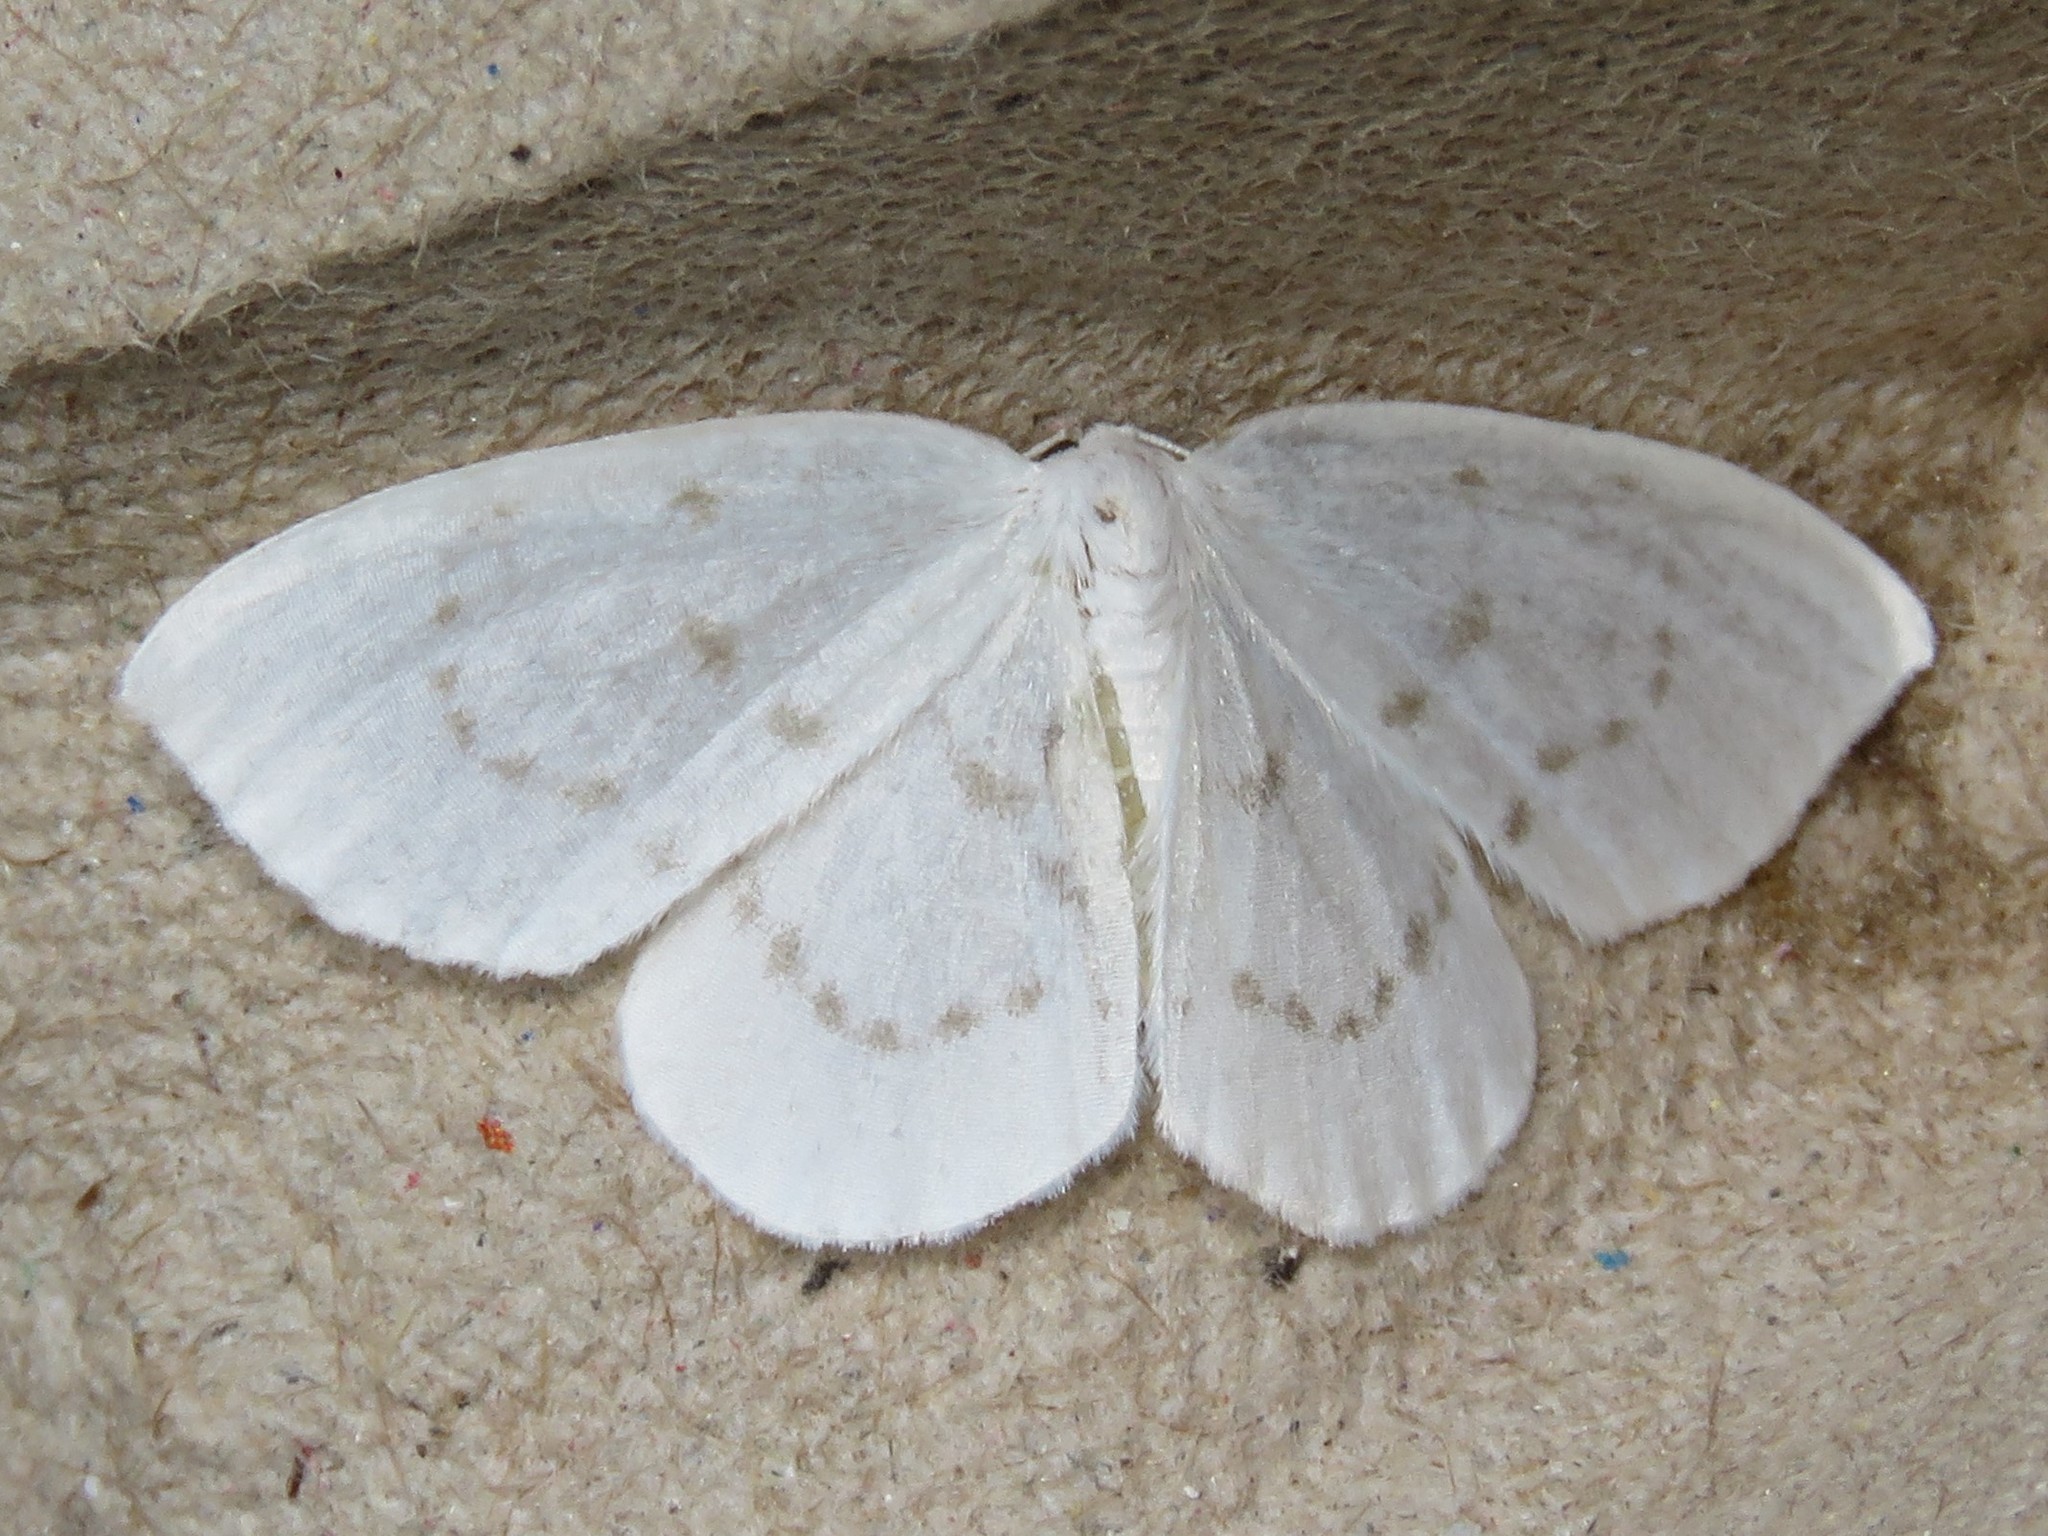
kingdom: Animalia
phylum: Arthropoda
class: Insecta
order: Lepidoptera
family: Drepanidae
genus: Eudeilinia
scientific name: Eudeilinia herminiata
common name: Northern eudeilinea moth
